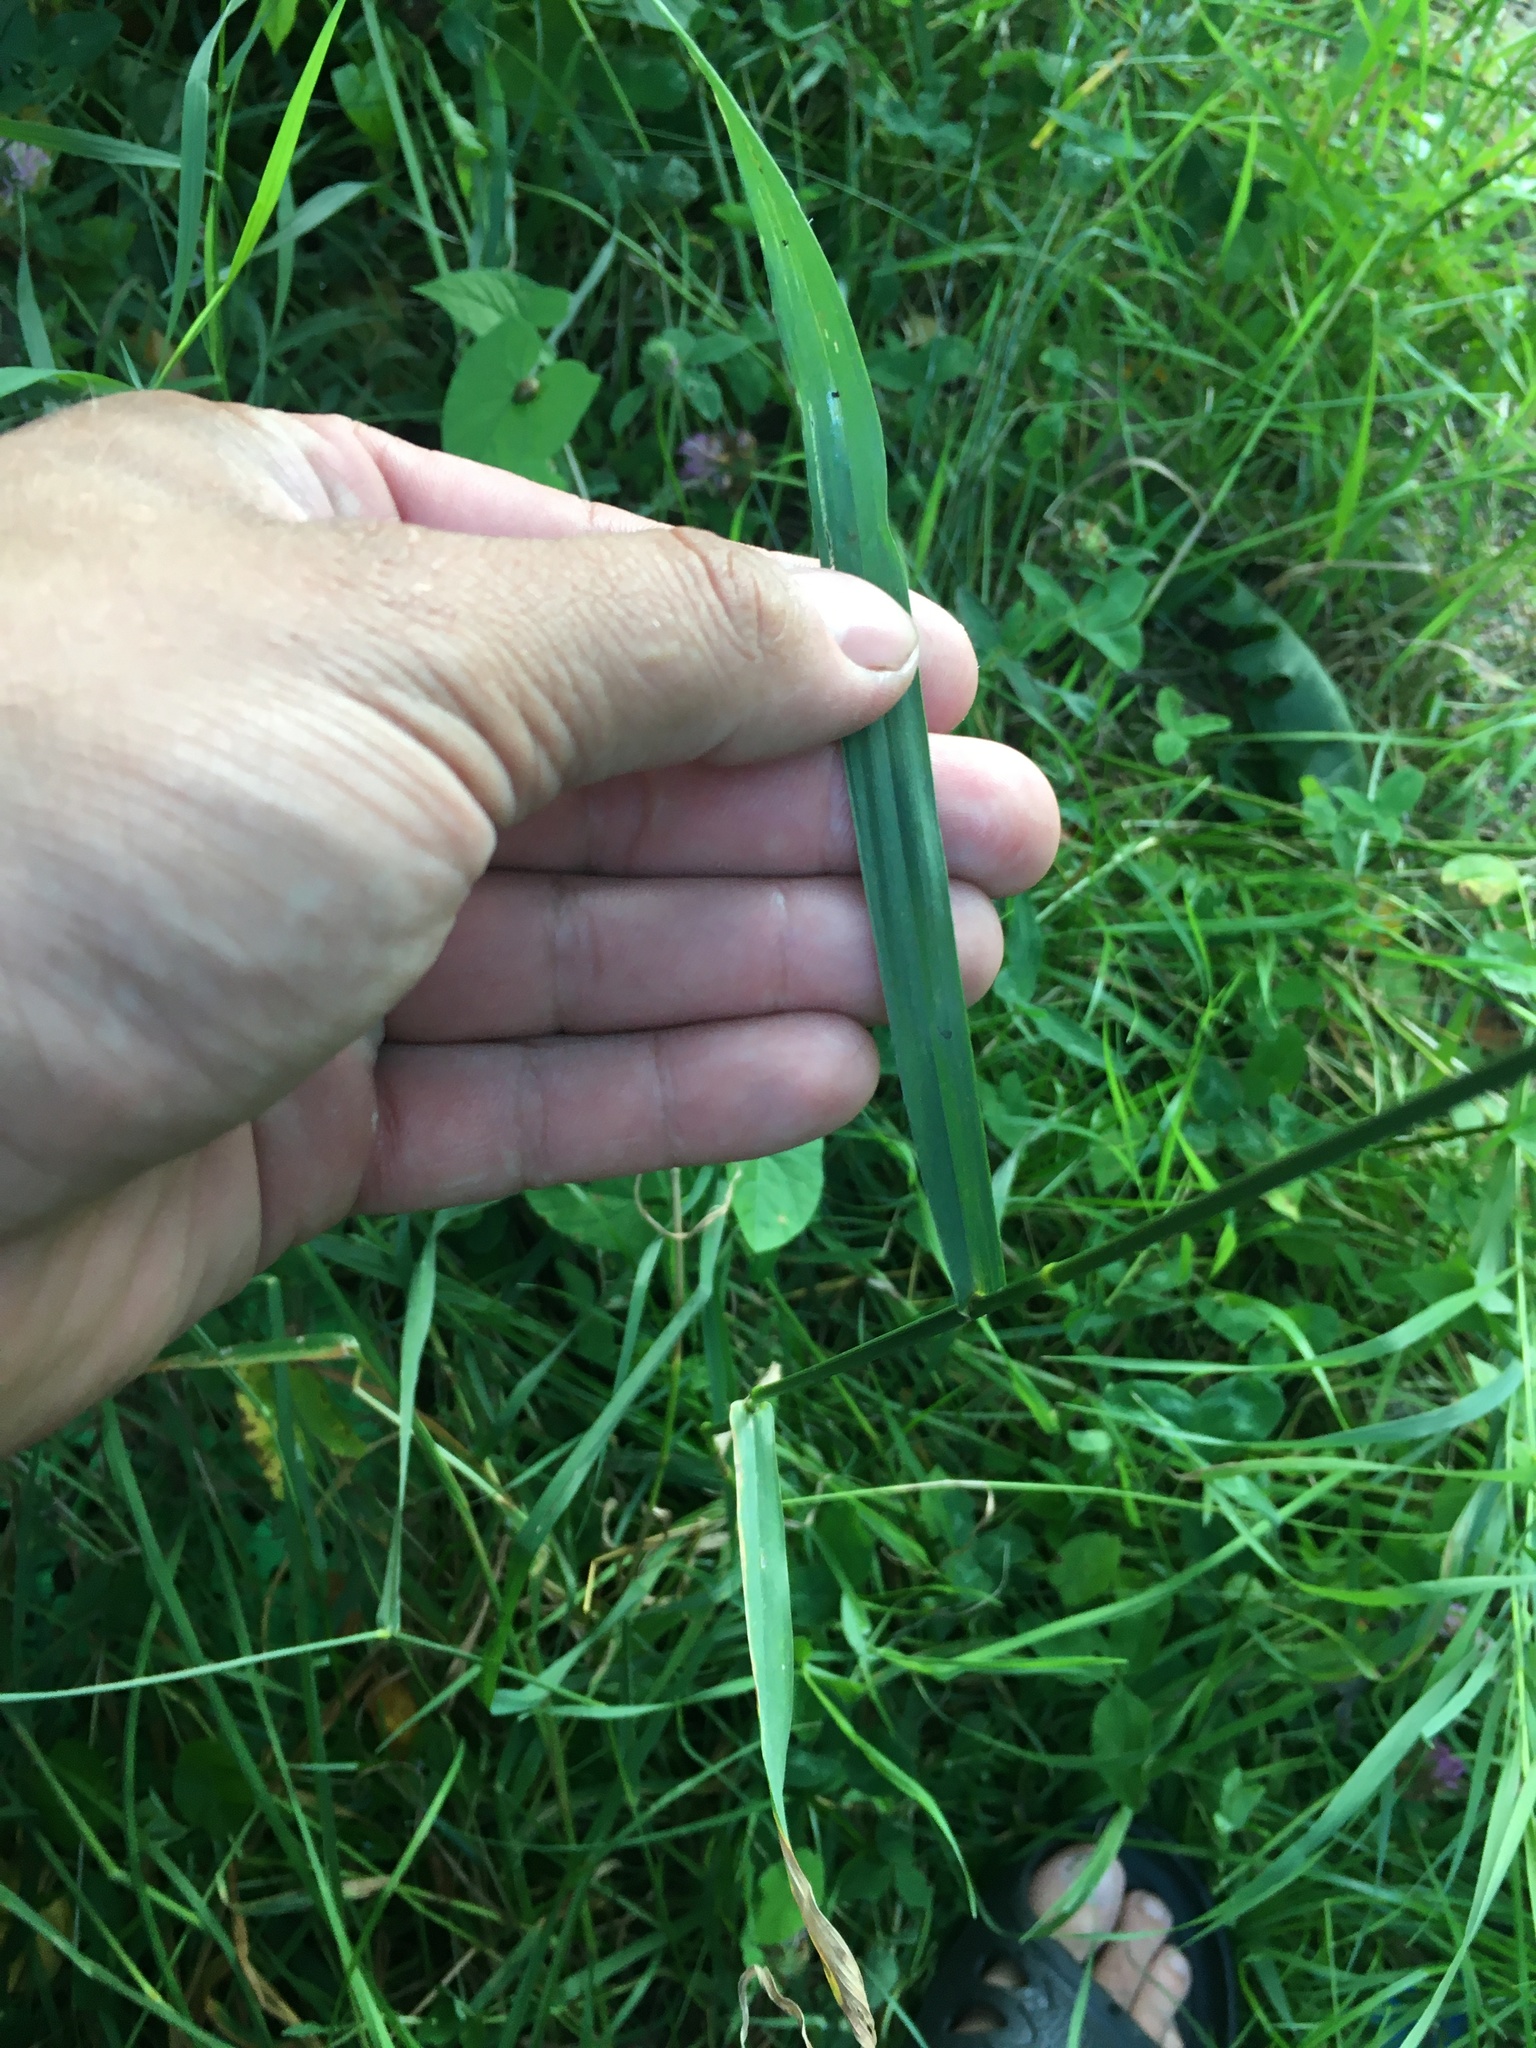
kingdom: Plantae
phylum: Tracheophyta
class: Liliopsida
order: Poales
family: Poaceae
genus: Bromus
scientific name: Bromus inermis
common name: Smooth brome
